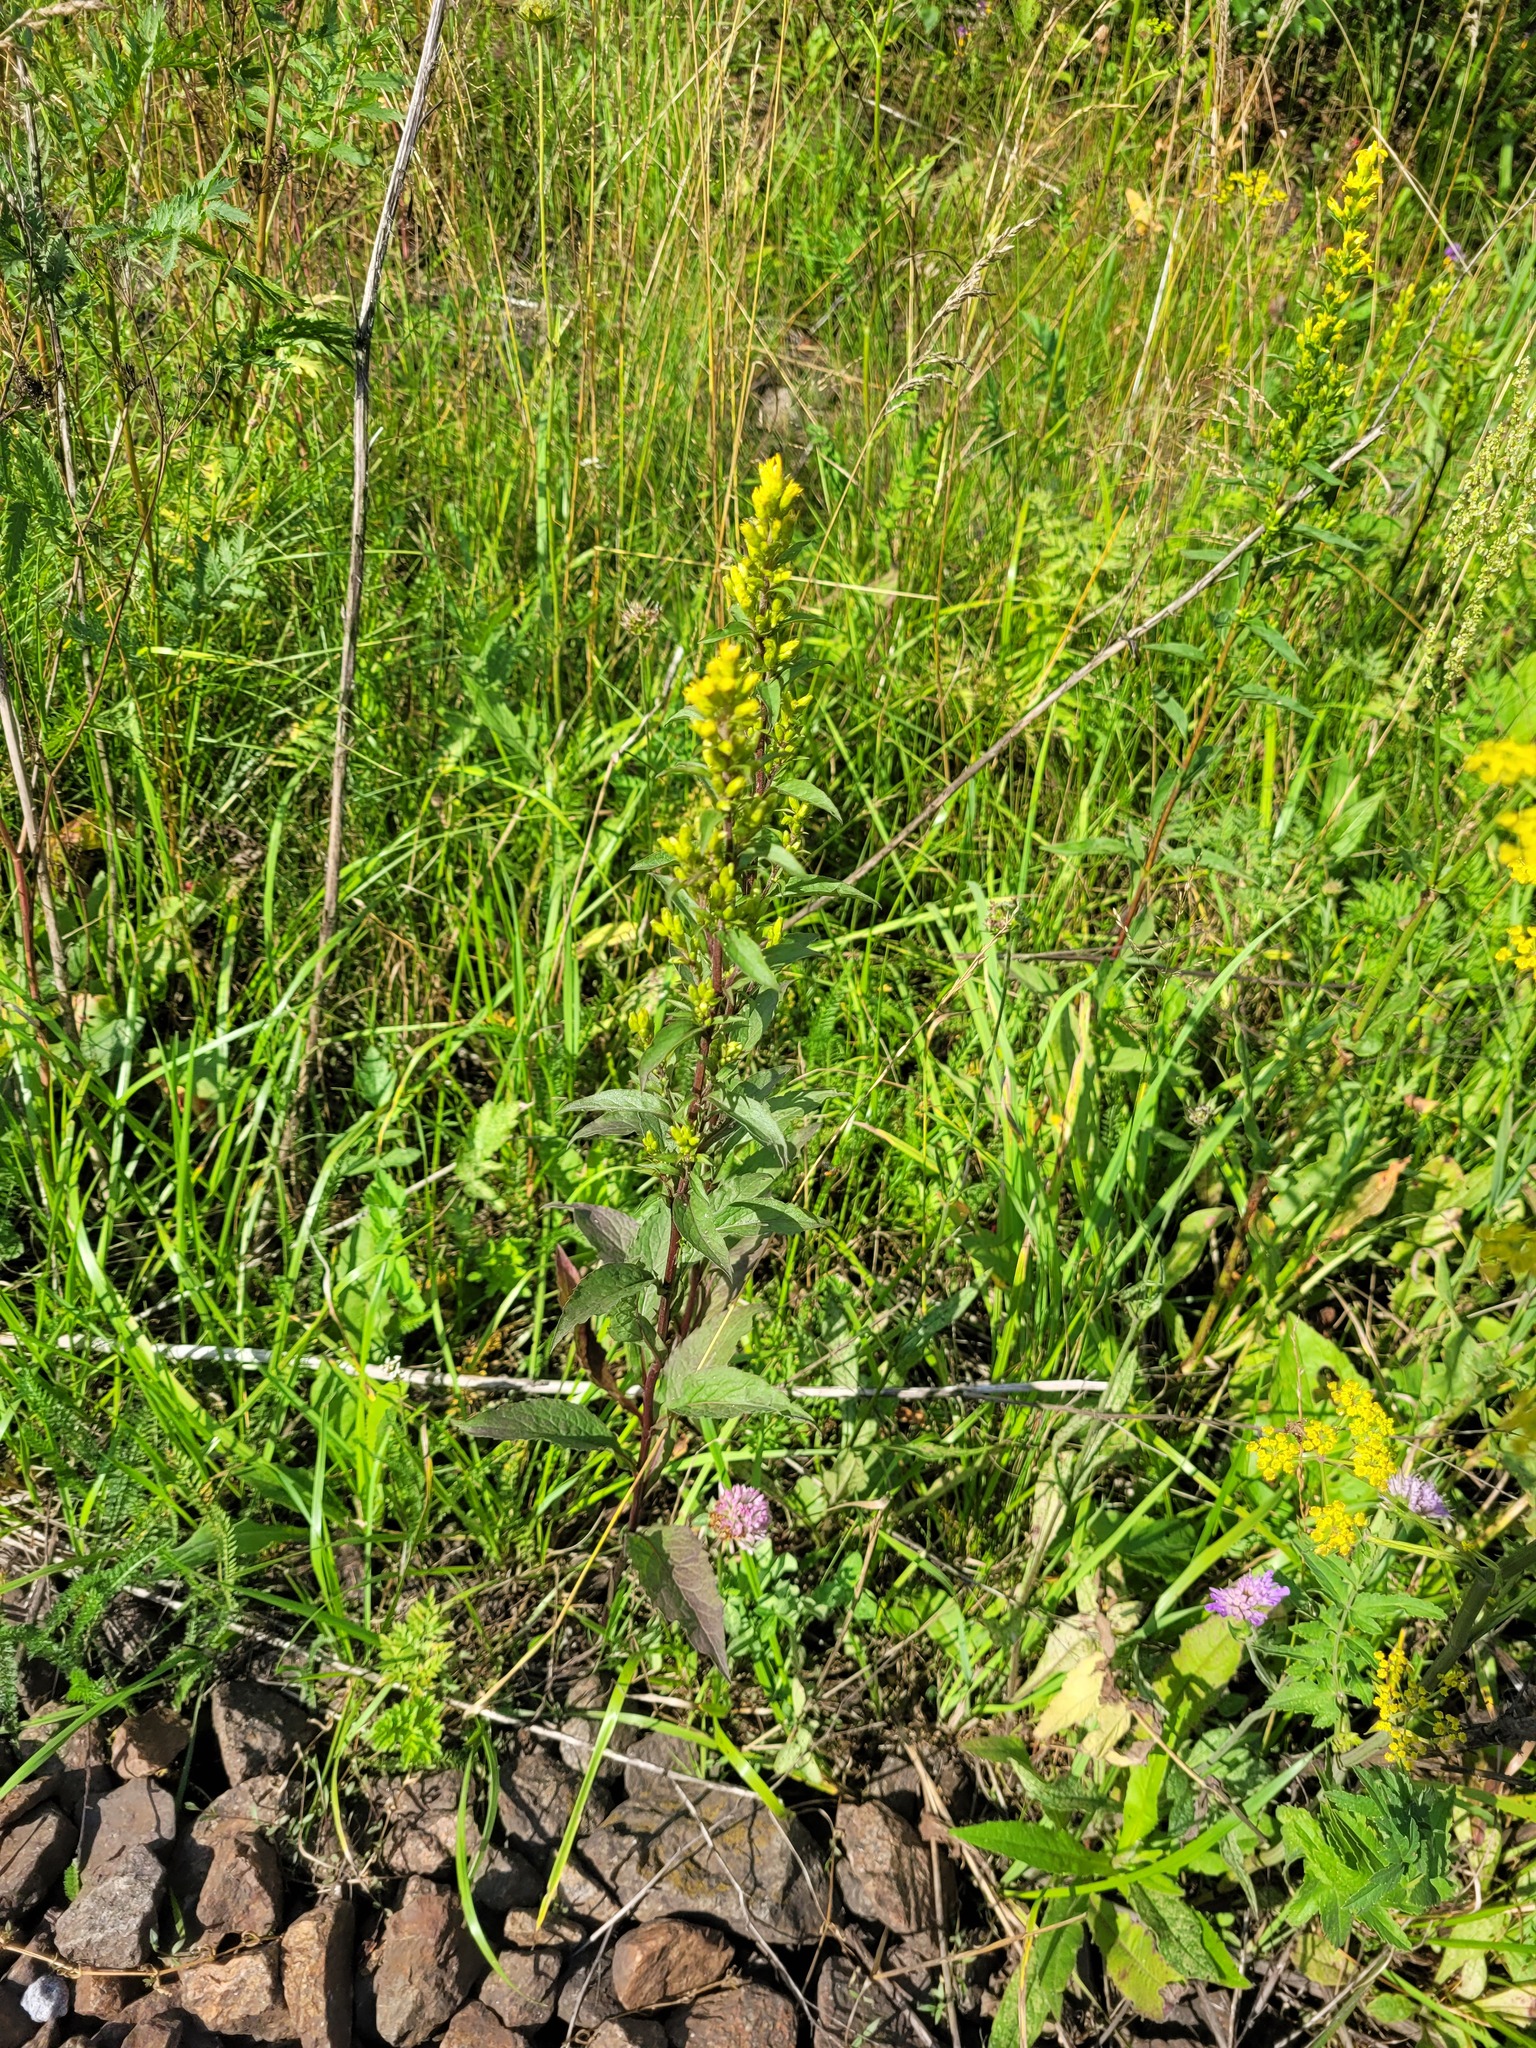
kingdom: Plantae
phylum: Tracheophyta
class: Magnoliopsida
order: Asterales
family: Asteraceae
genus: Solidago
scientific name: Solidago virgaurea
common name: Goldenrod
